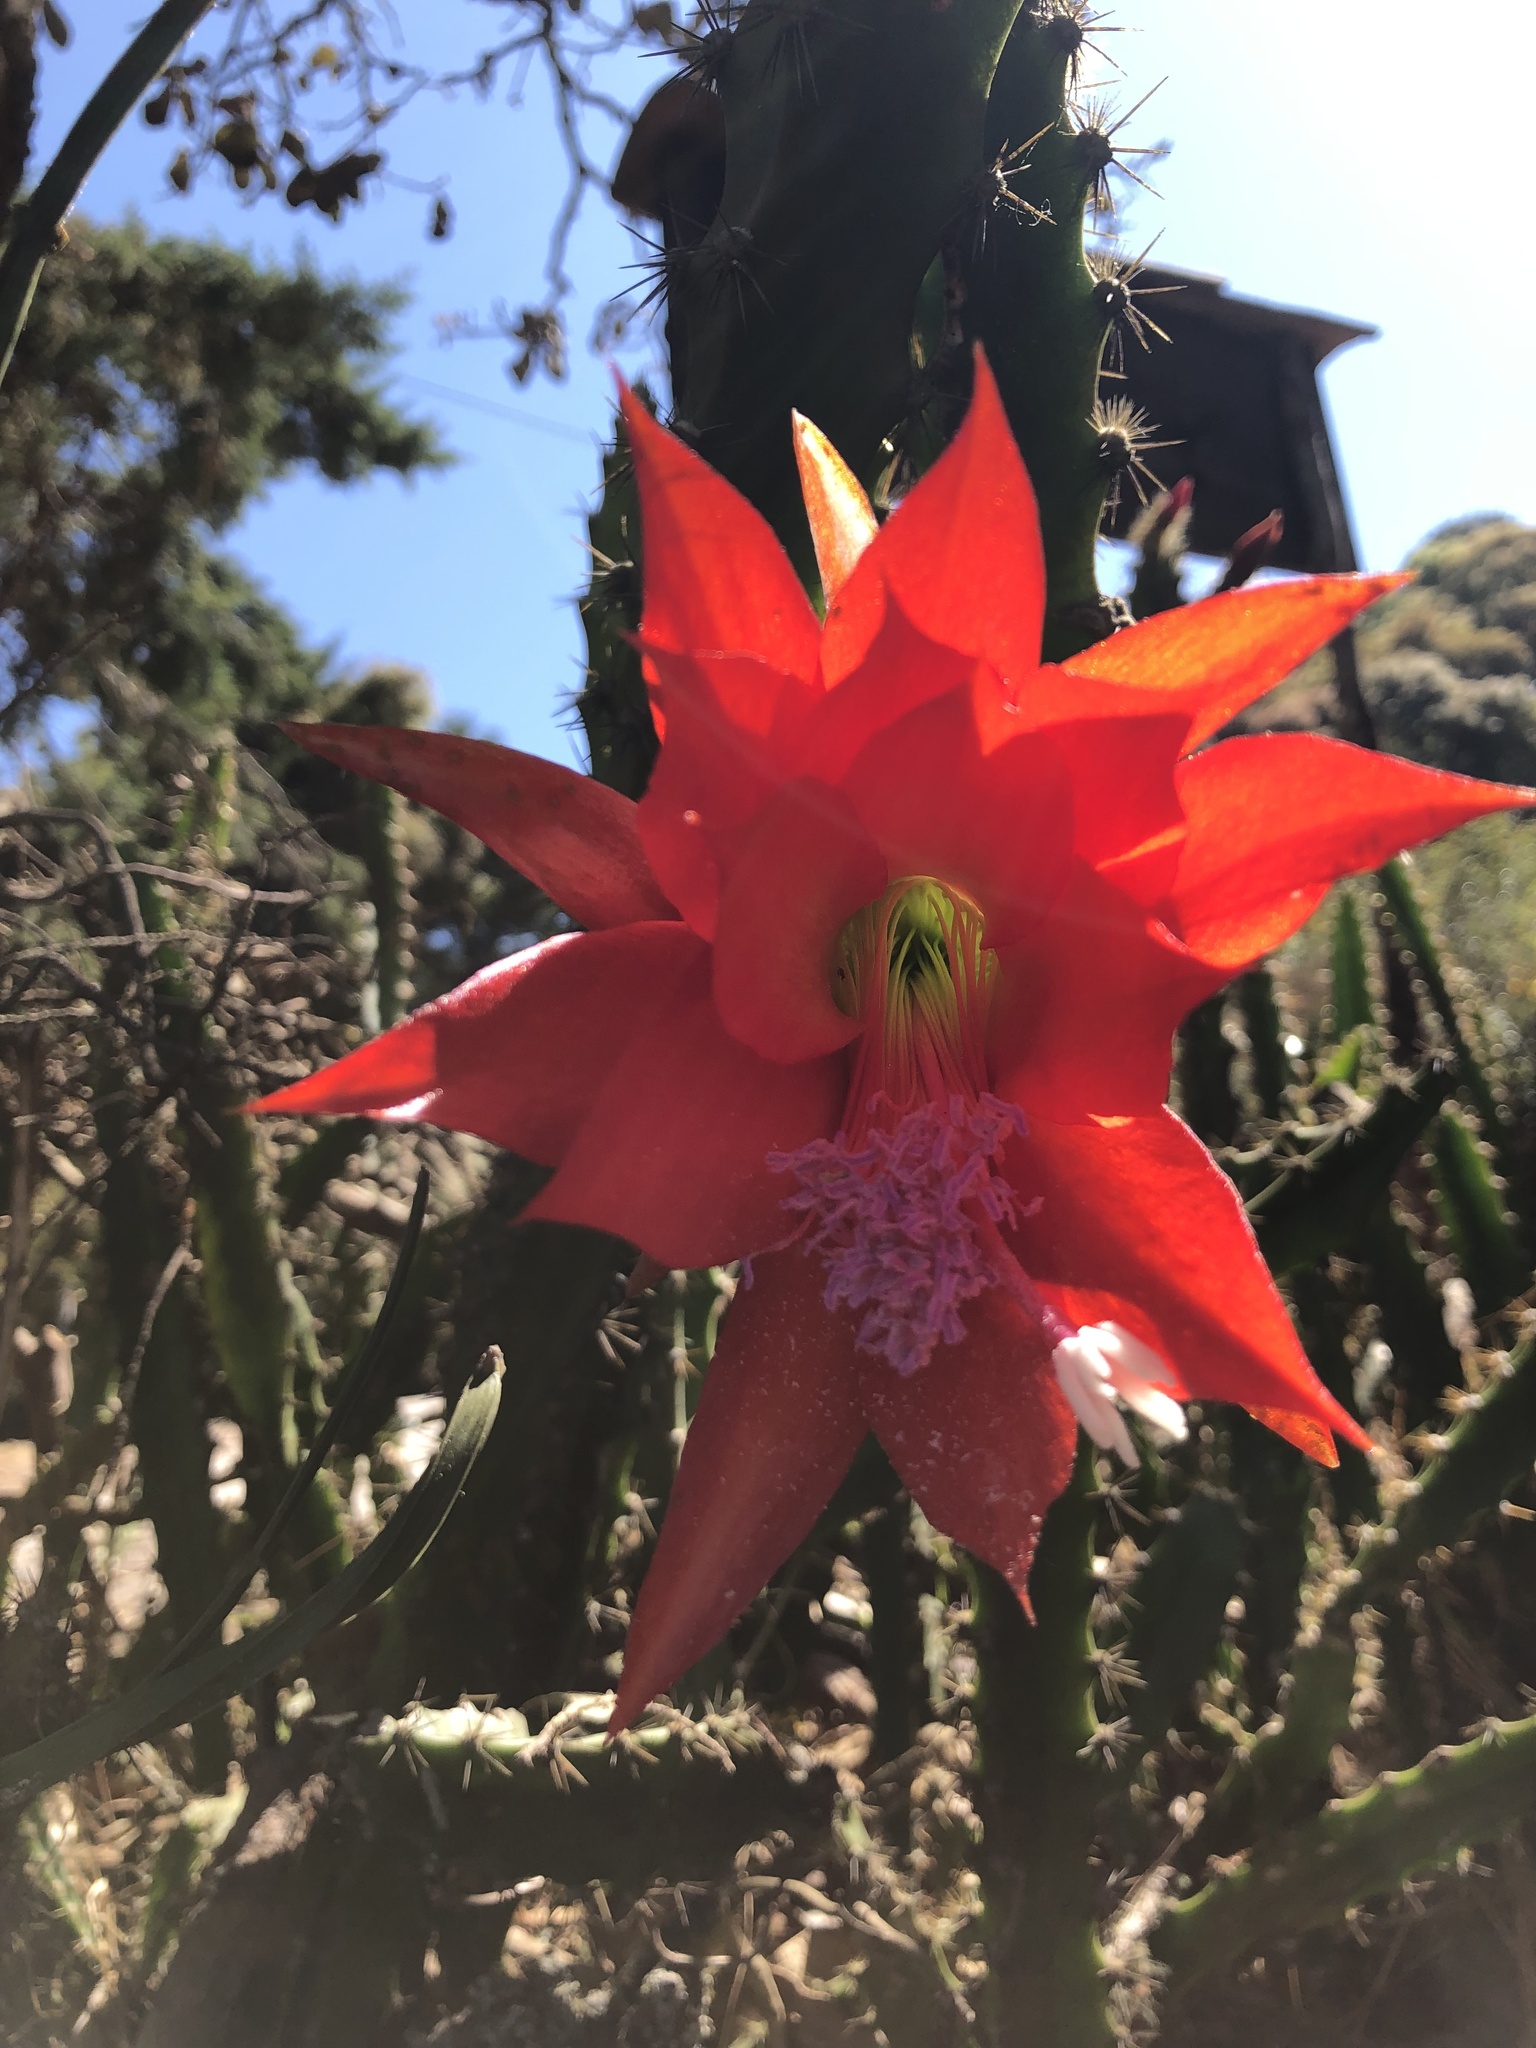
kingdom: Plantae
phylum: Tracheophyta
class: Magnoliopsida
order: Caryophyllales
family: Cactaceae
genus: Disocactus
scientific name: Disocactus speciosus
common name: Sun cereus
